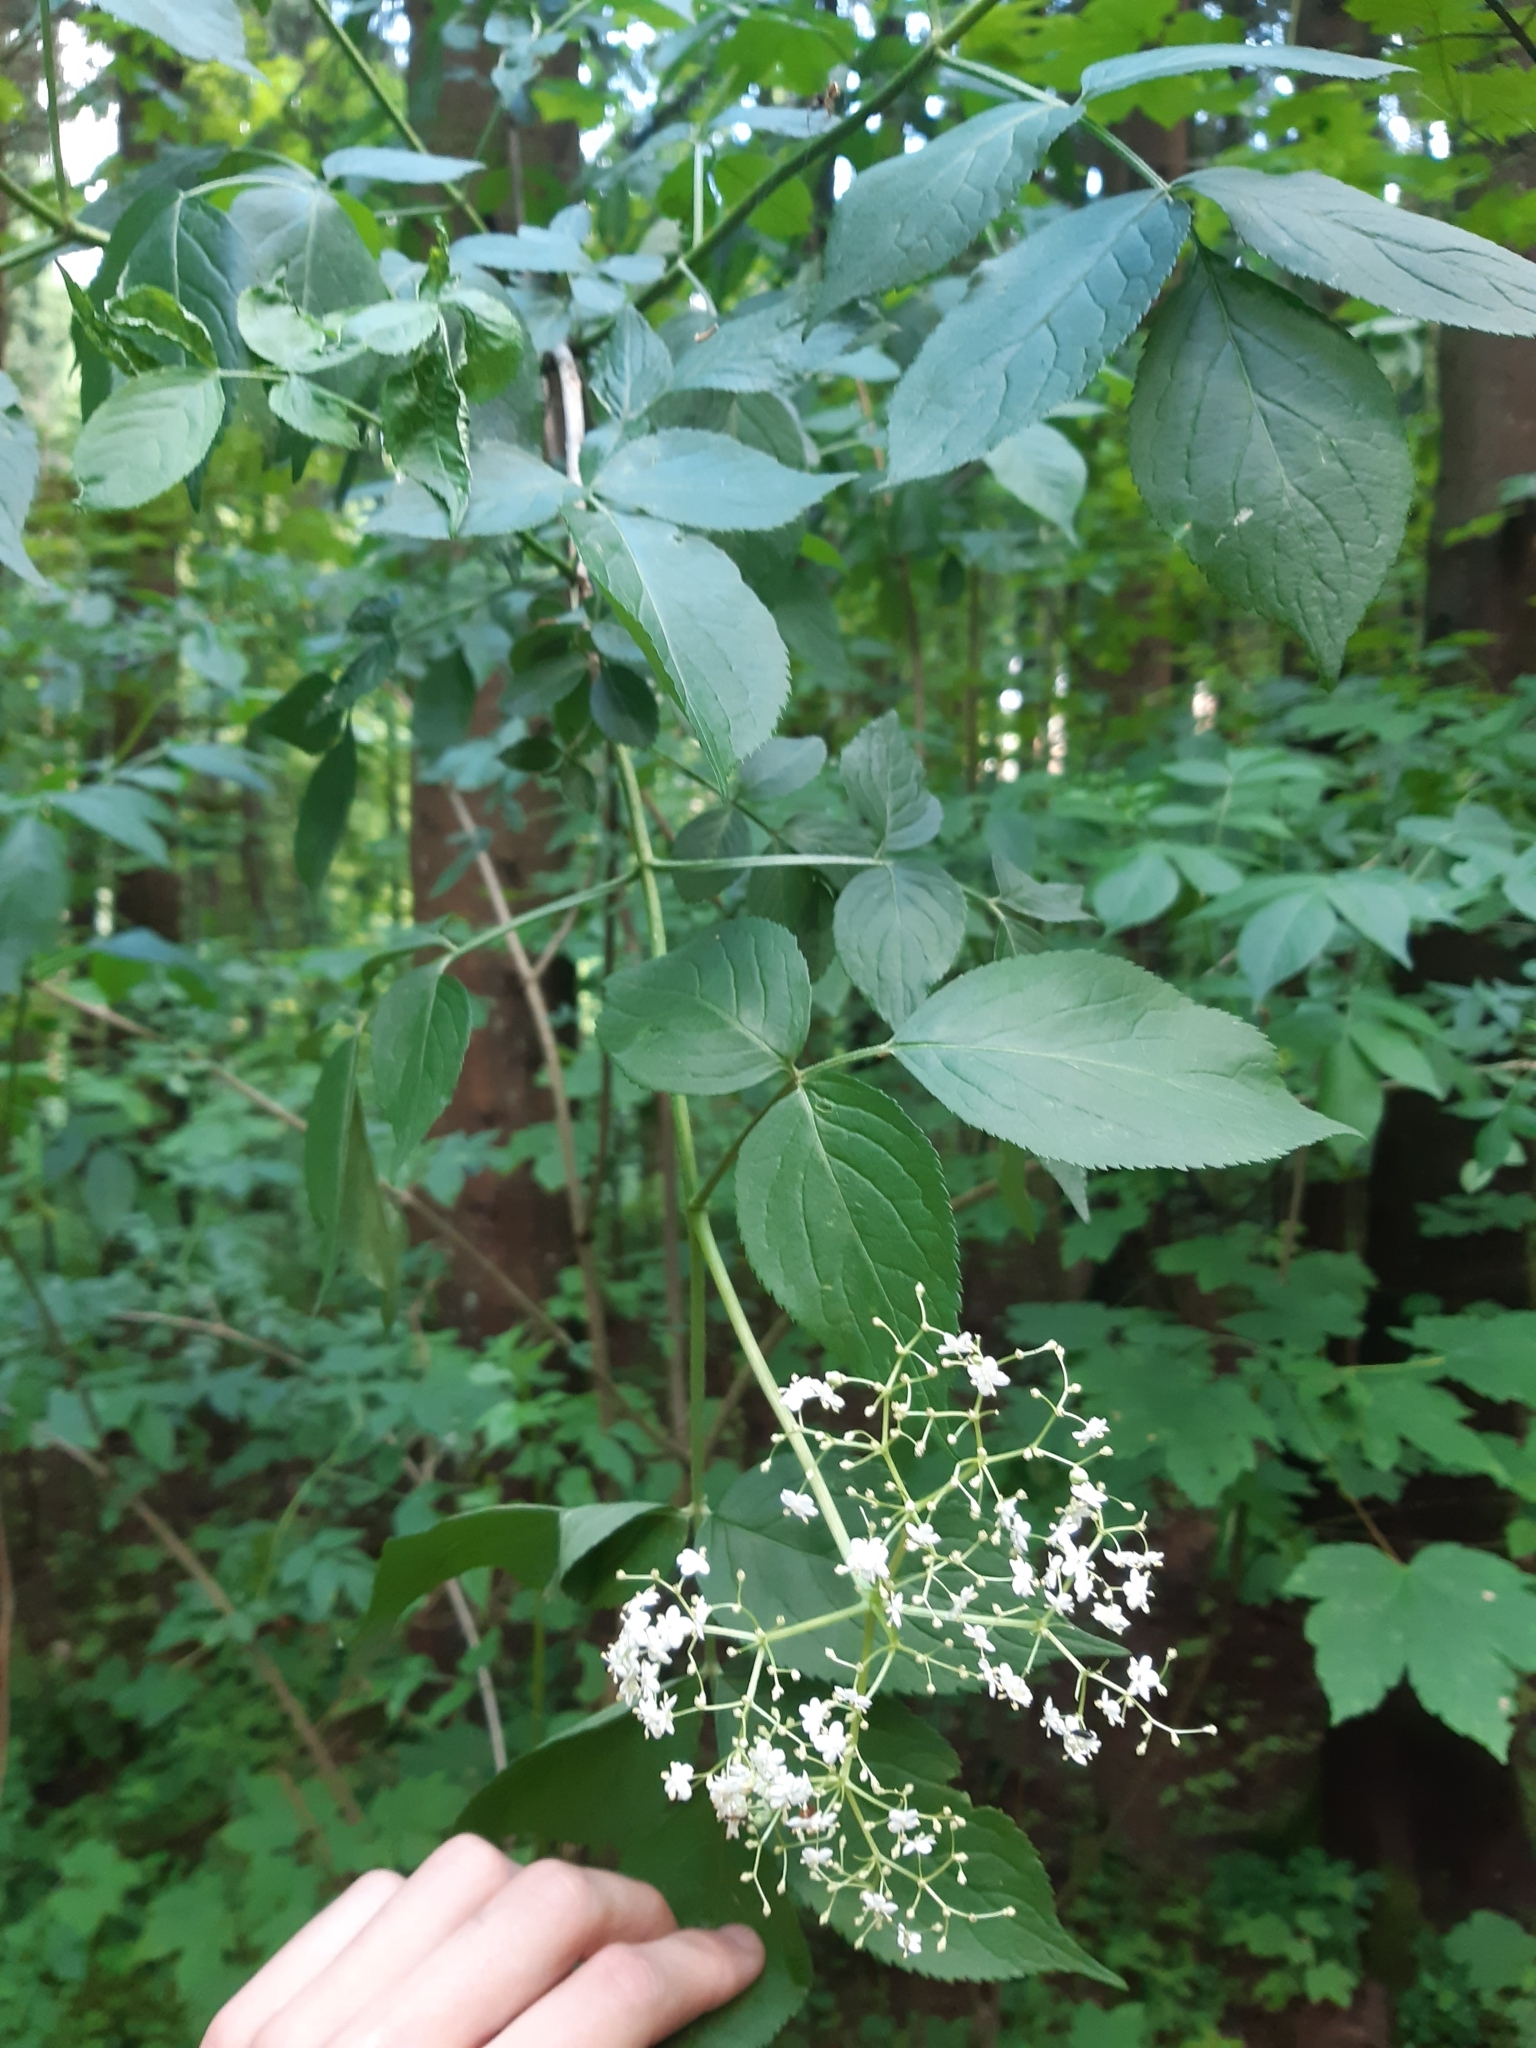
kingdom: Plantae
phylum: Tracheophyta
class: Magnoliopsida
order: Dipsacales
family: Viburnaceae
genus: Sambucus
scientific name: Sambucus nigra
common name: Elder
